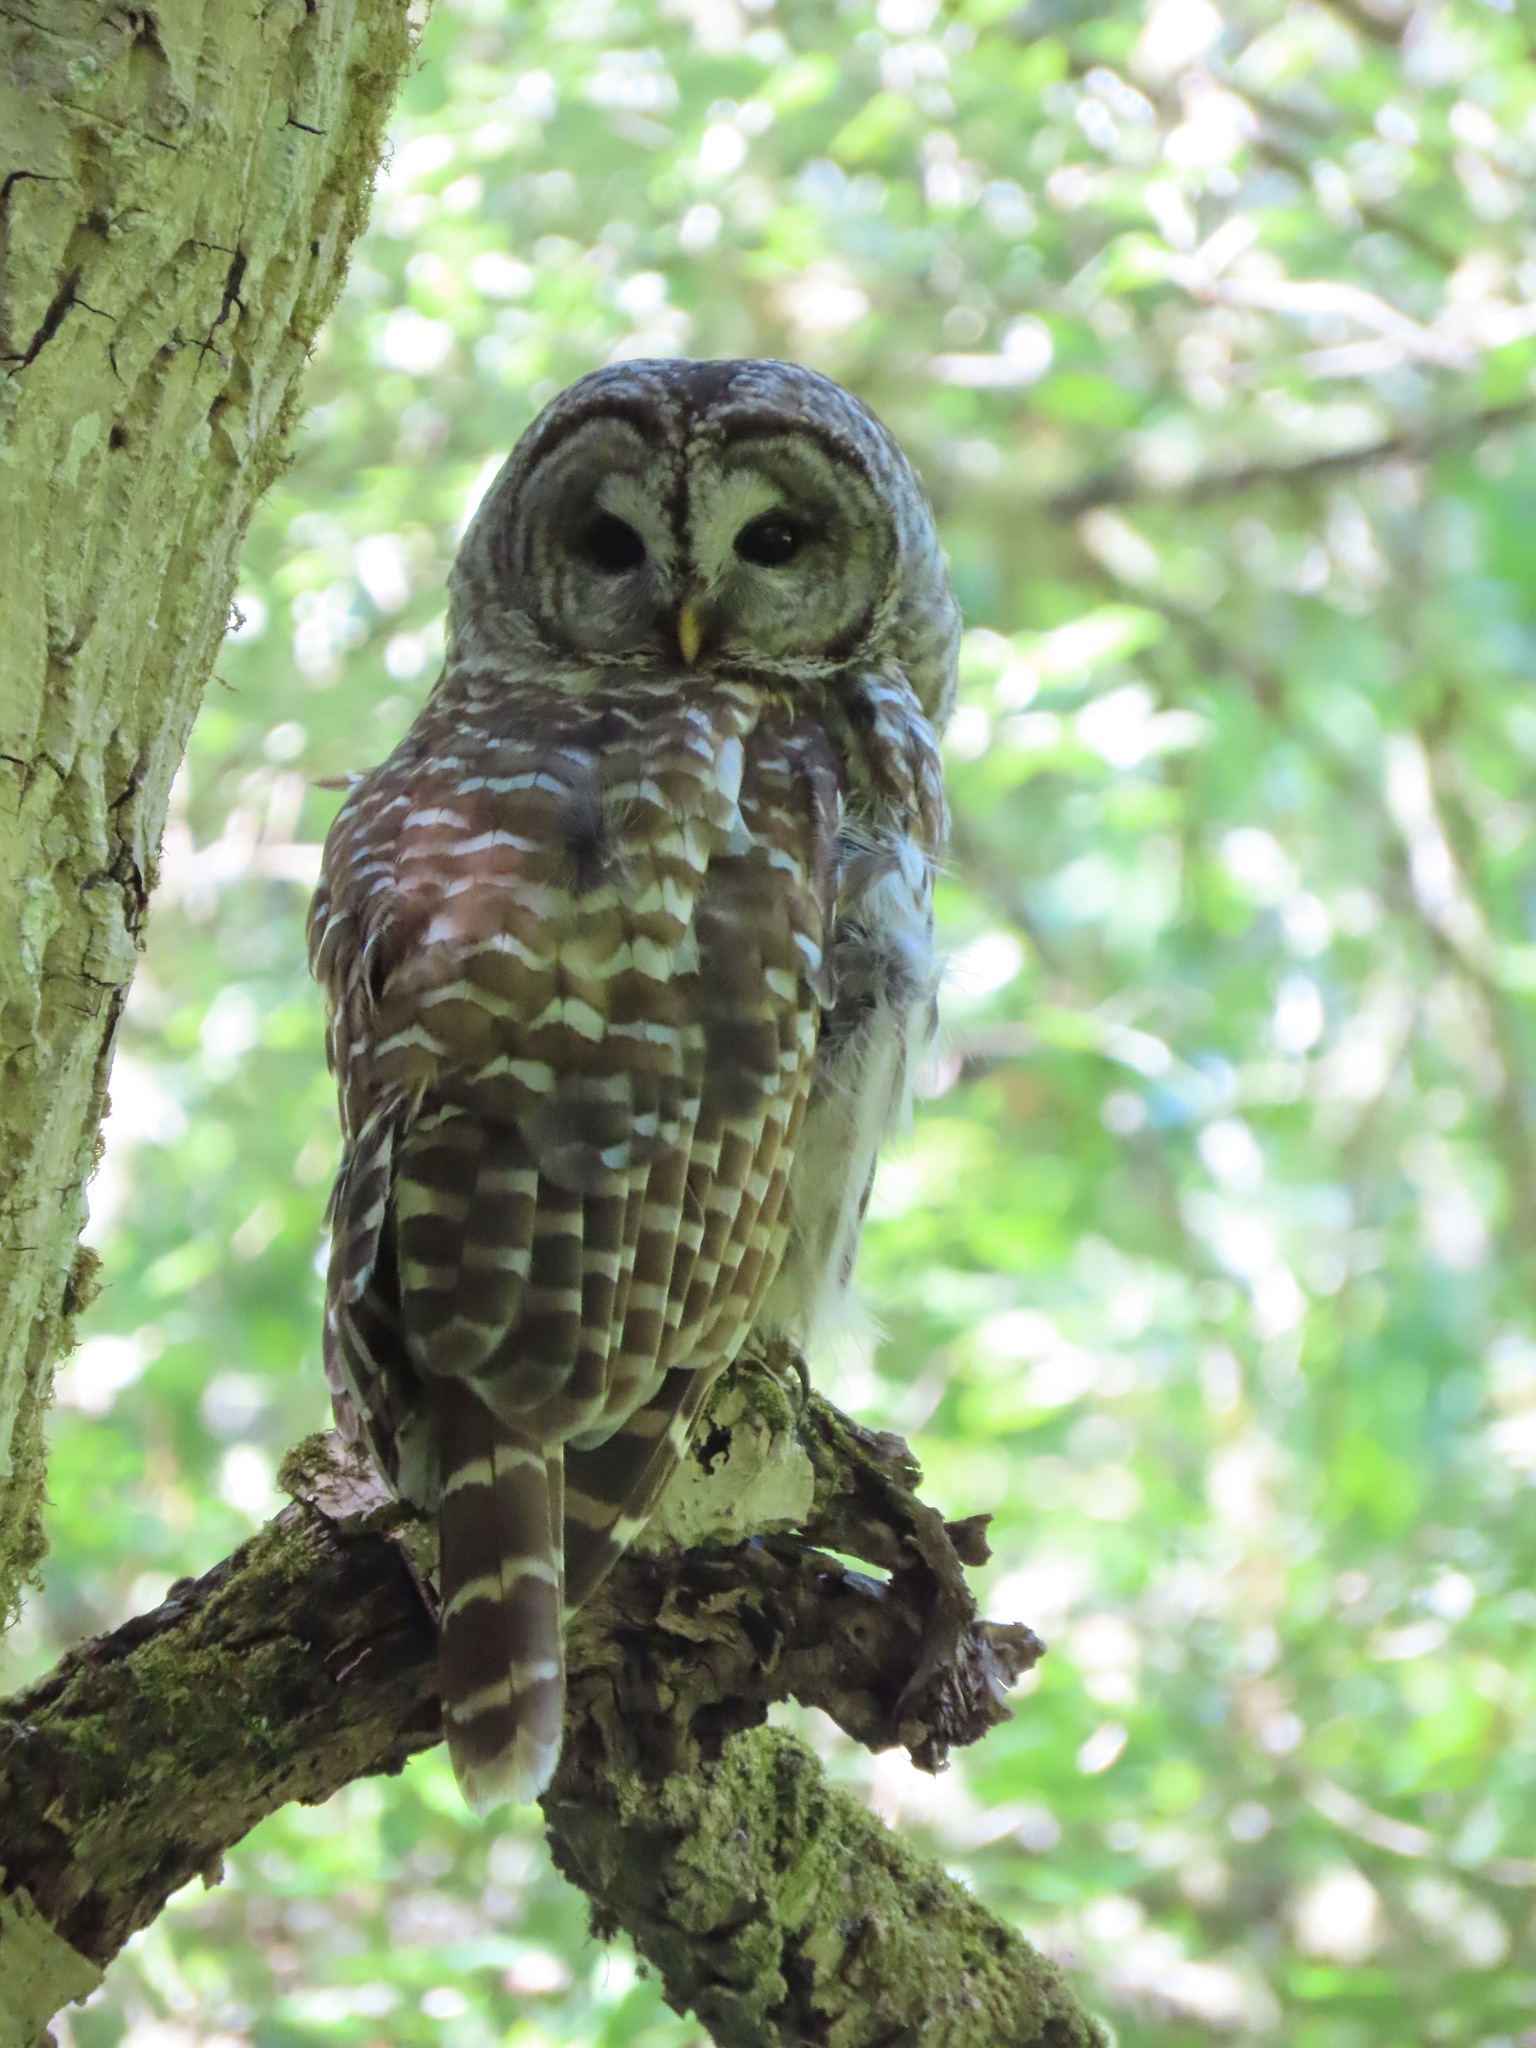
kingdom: Animalia
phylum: Chordata
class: Aves
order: Strigiformes
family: Strigidae
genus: Strix
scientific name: Strix varia
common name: Barred owl
